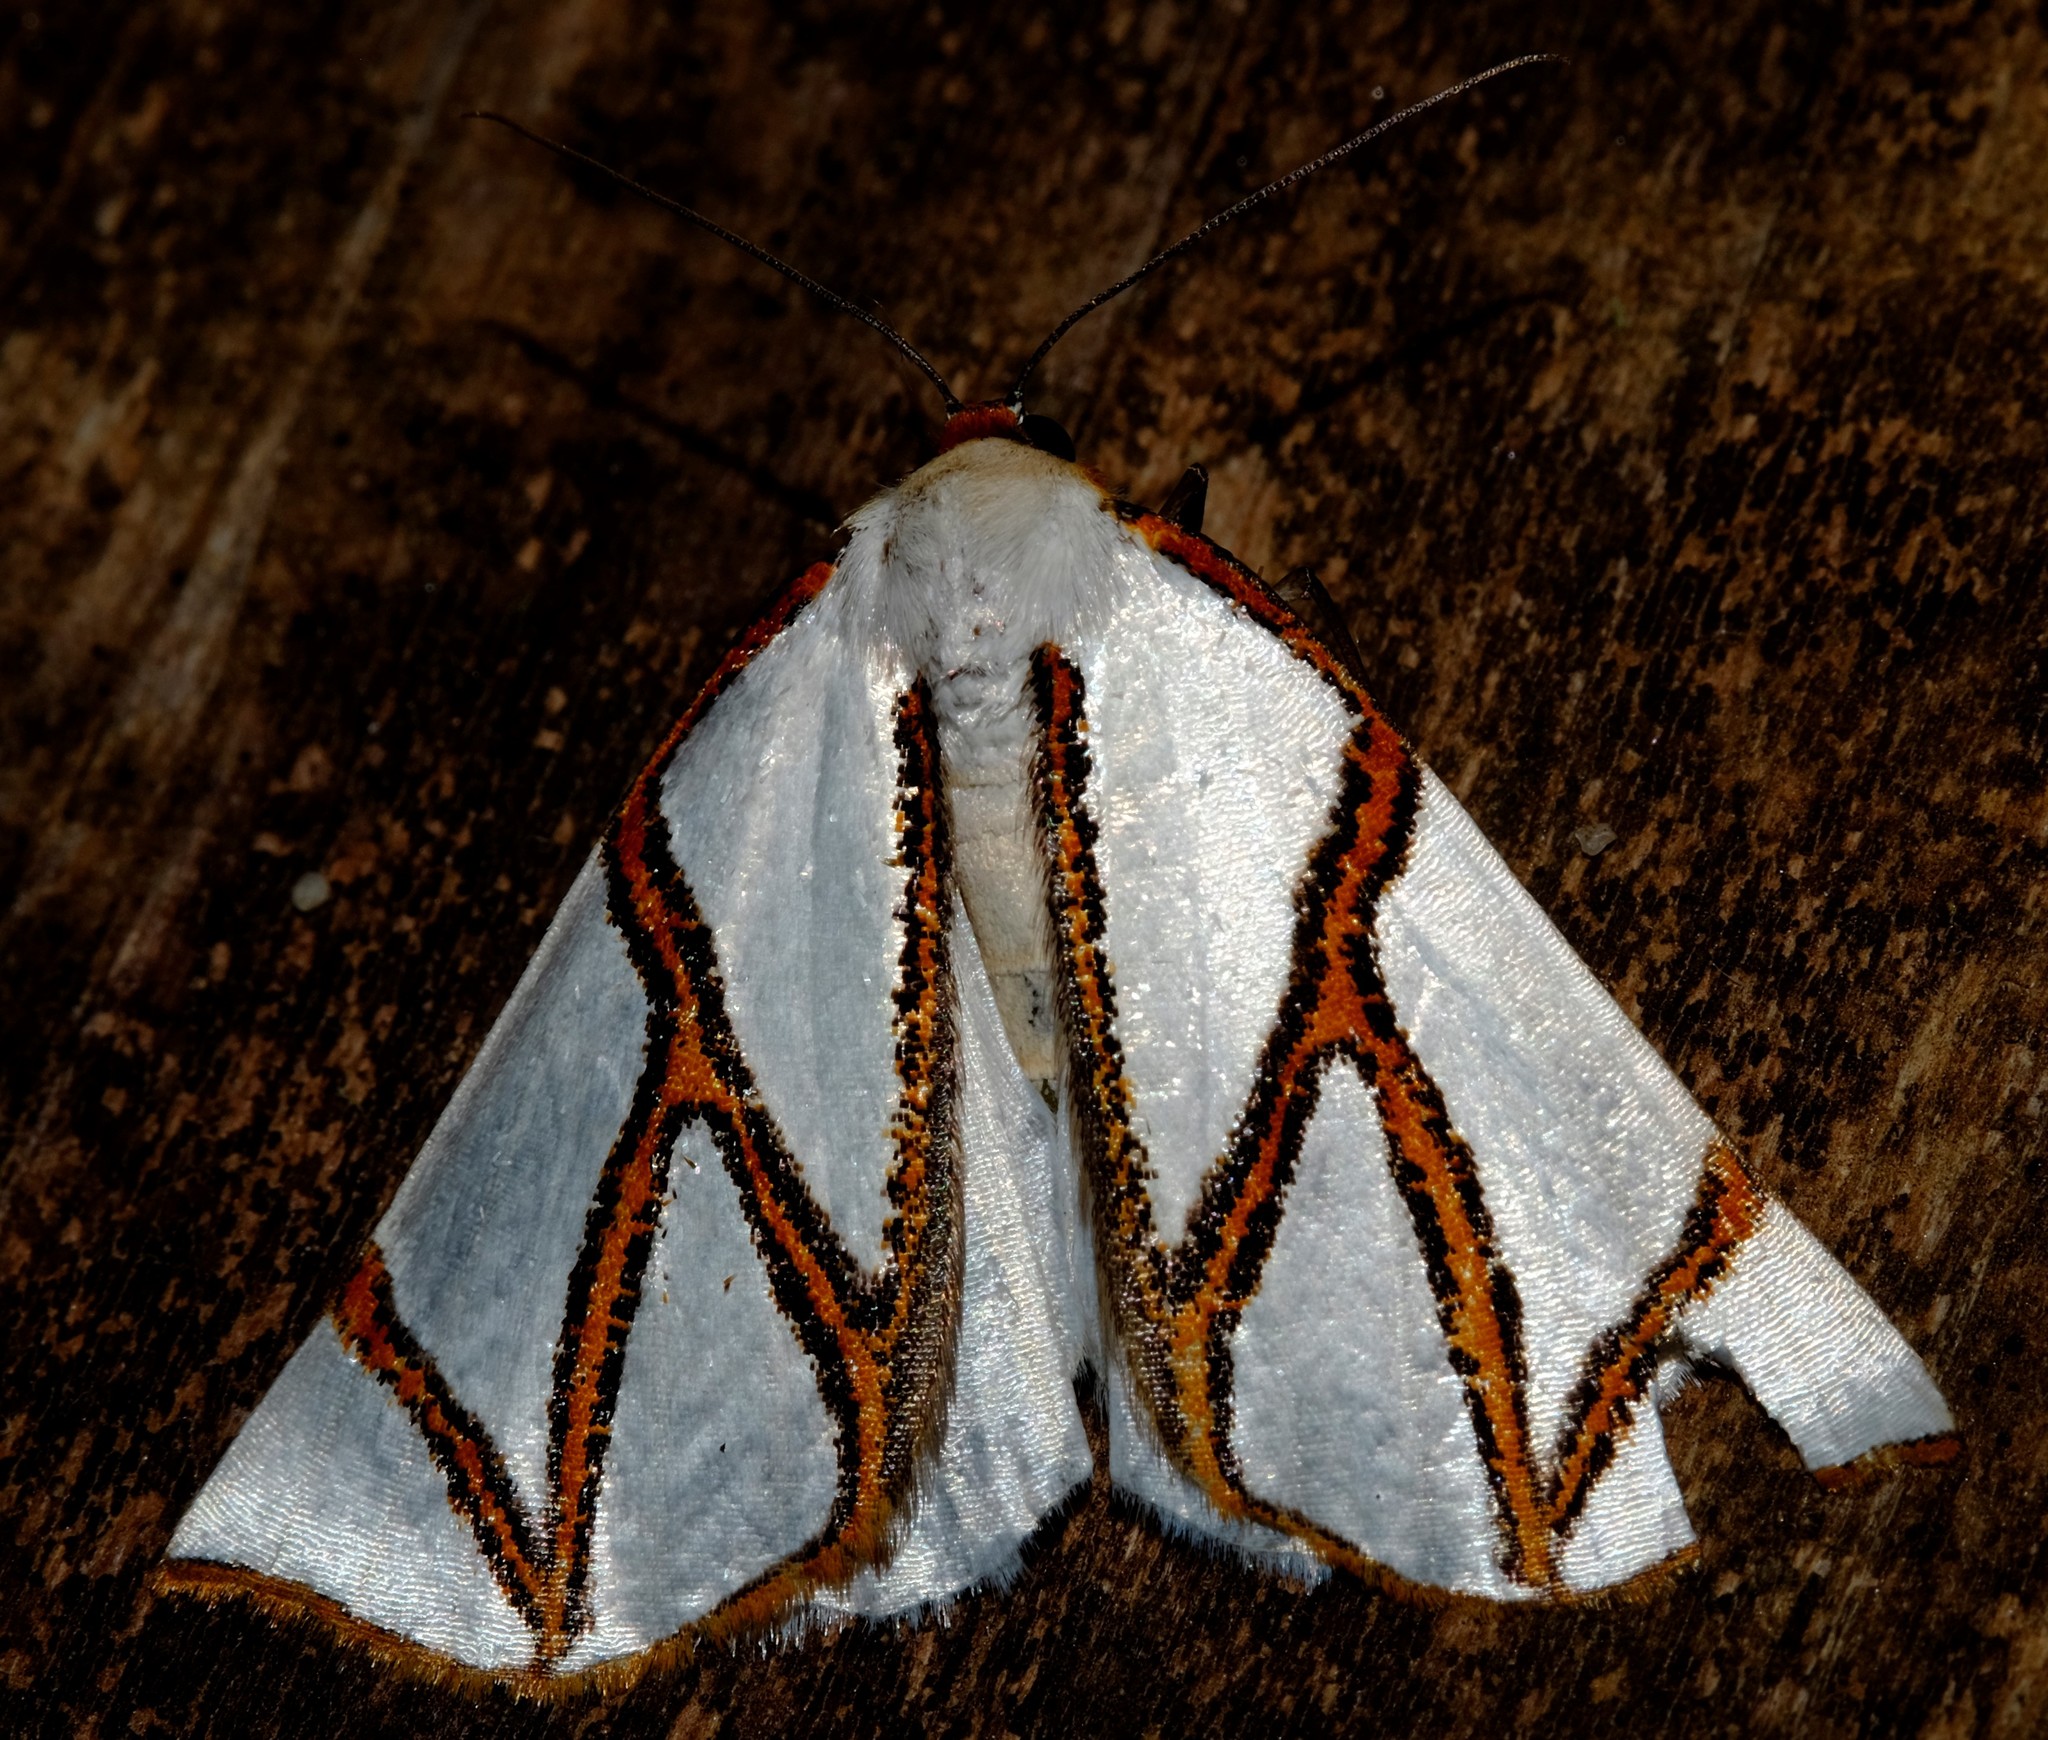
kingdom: Animalia
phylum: Arthropoda
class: Insecta
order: Lepidoptera
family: Geometridae
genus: Thalaina
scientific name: Thalaina clara
